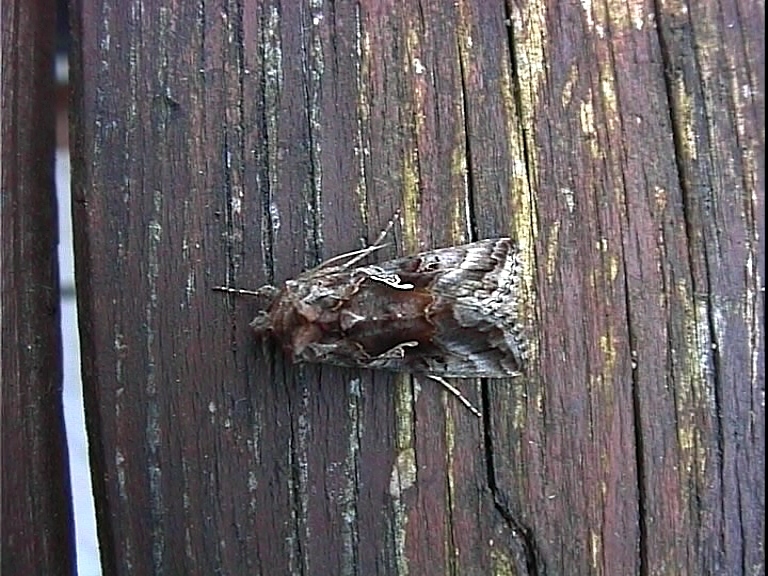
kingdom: Animalia
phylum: Arthropoda
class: Insecta
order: Lepidoptera
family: Noctuidae
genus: Autographa
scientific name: Autographa gamma
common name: Silver y
